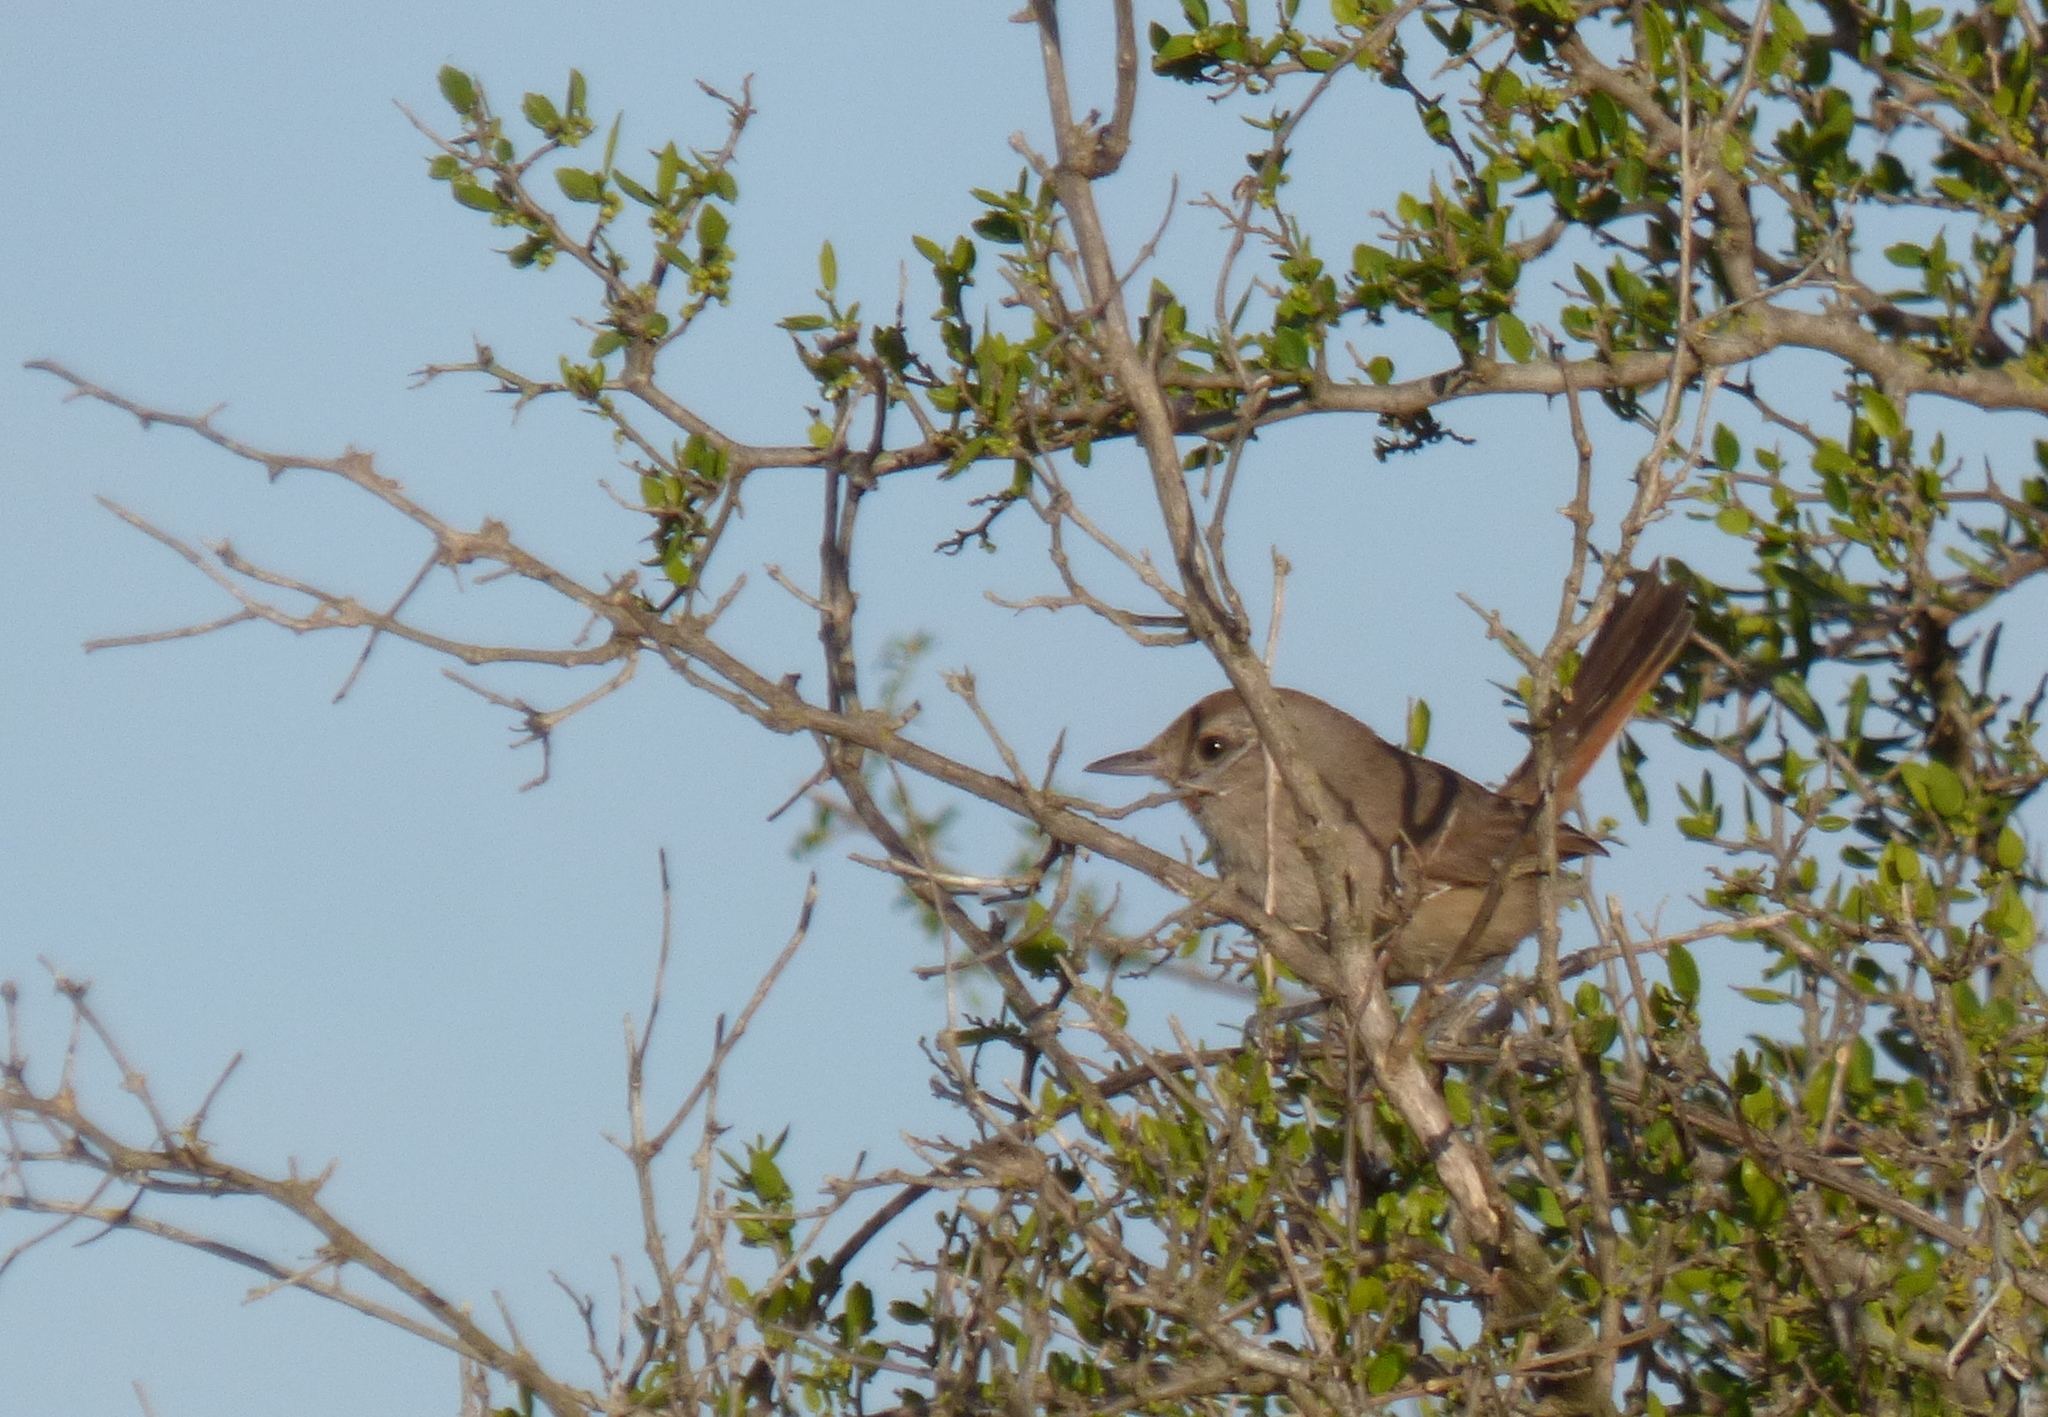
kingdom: Animalia
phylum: Chordata
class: Aves
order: Passeriformes
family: Furnariidae
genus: Asthenes
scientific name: Asthenes baeri
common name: Short-billed canastero
